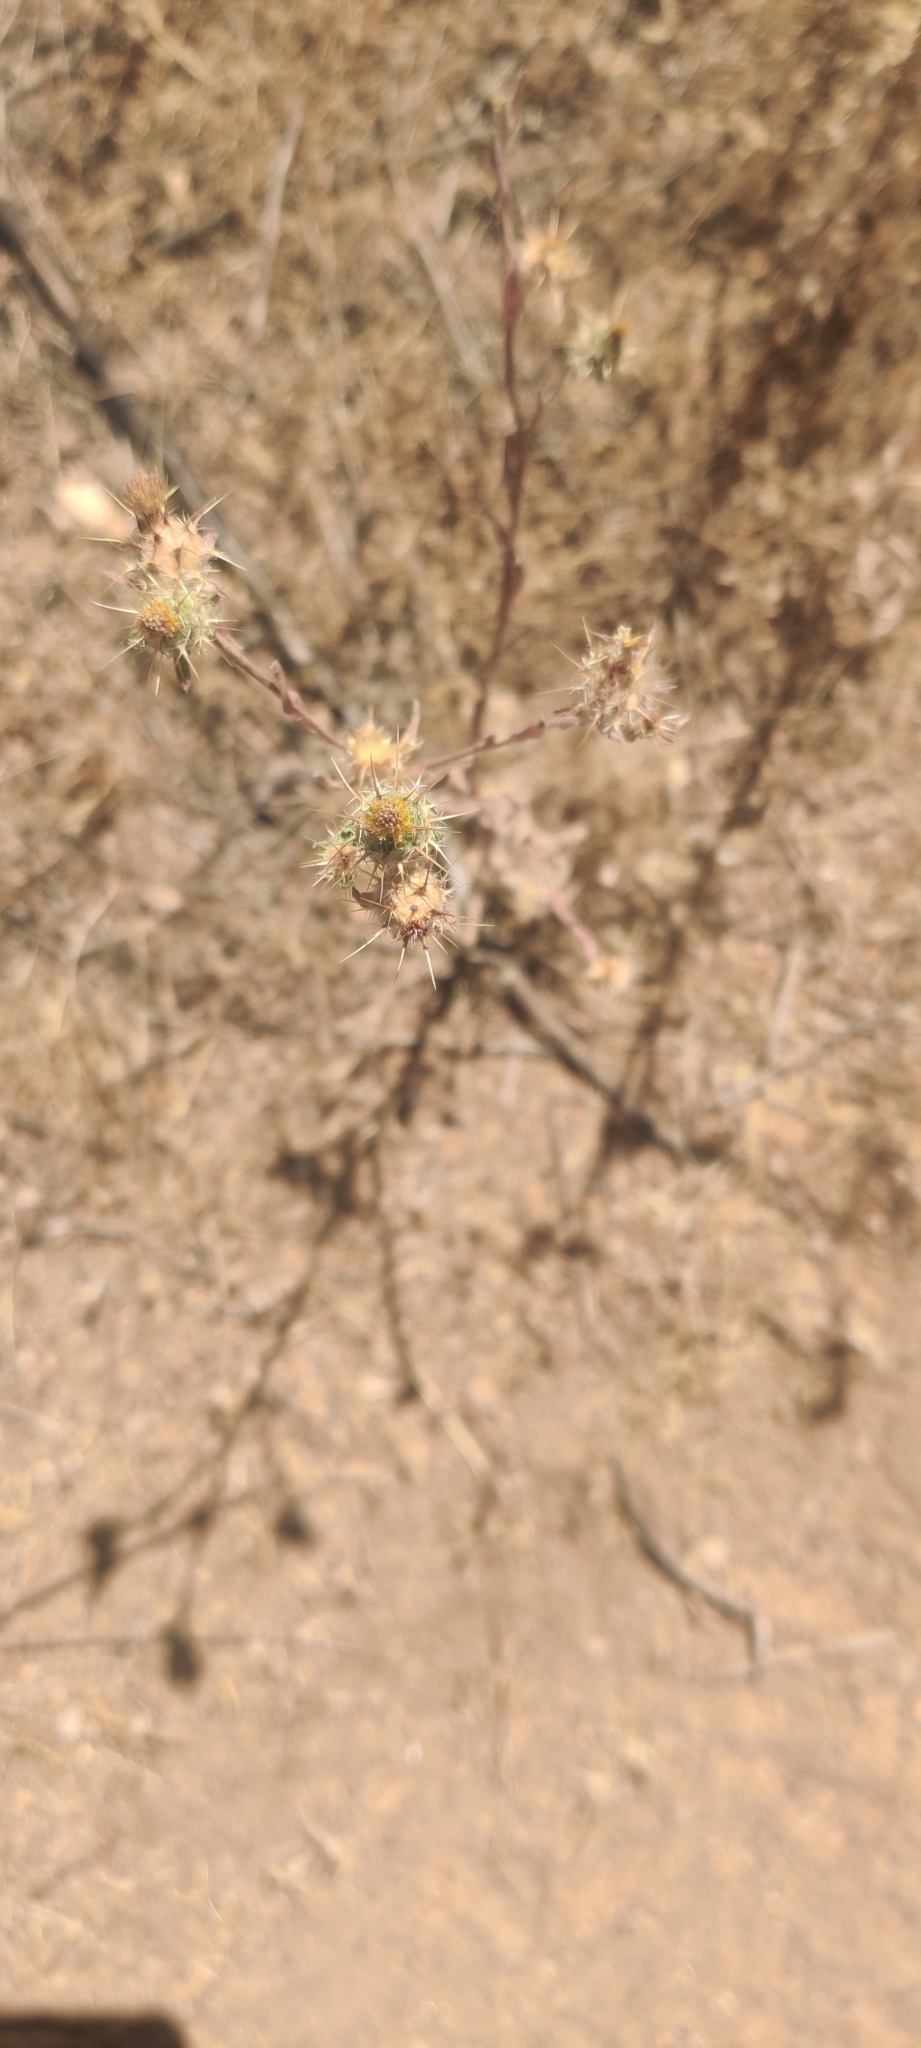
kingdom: Plantae
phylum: Tracheophyta
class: Magnoliopsida
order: Asterales
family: Asteraceae
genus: Centaurea
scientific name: Centaurea melitensis
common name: Maltese star-thistle
